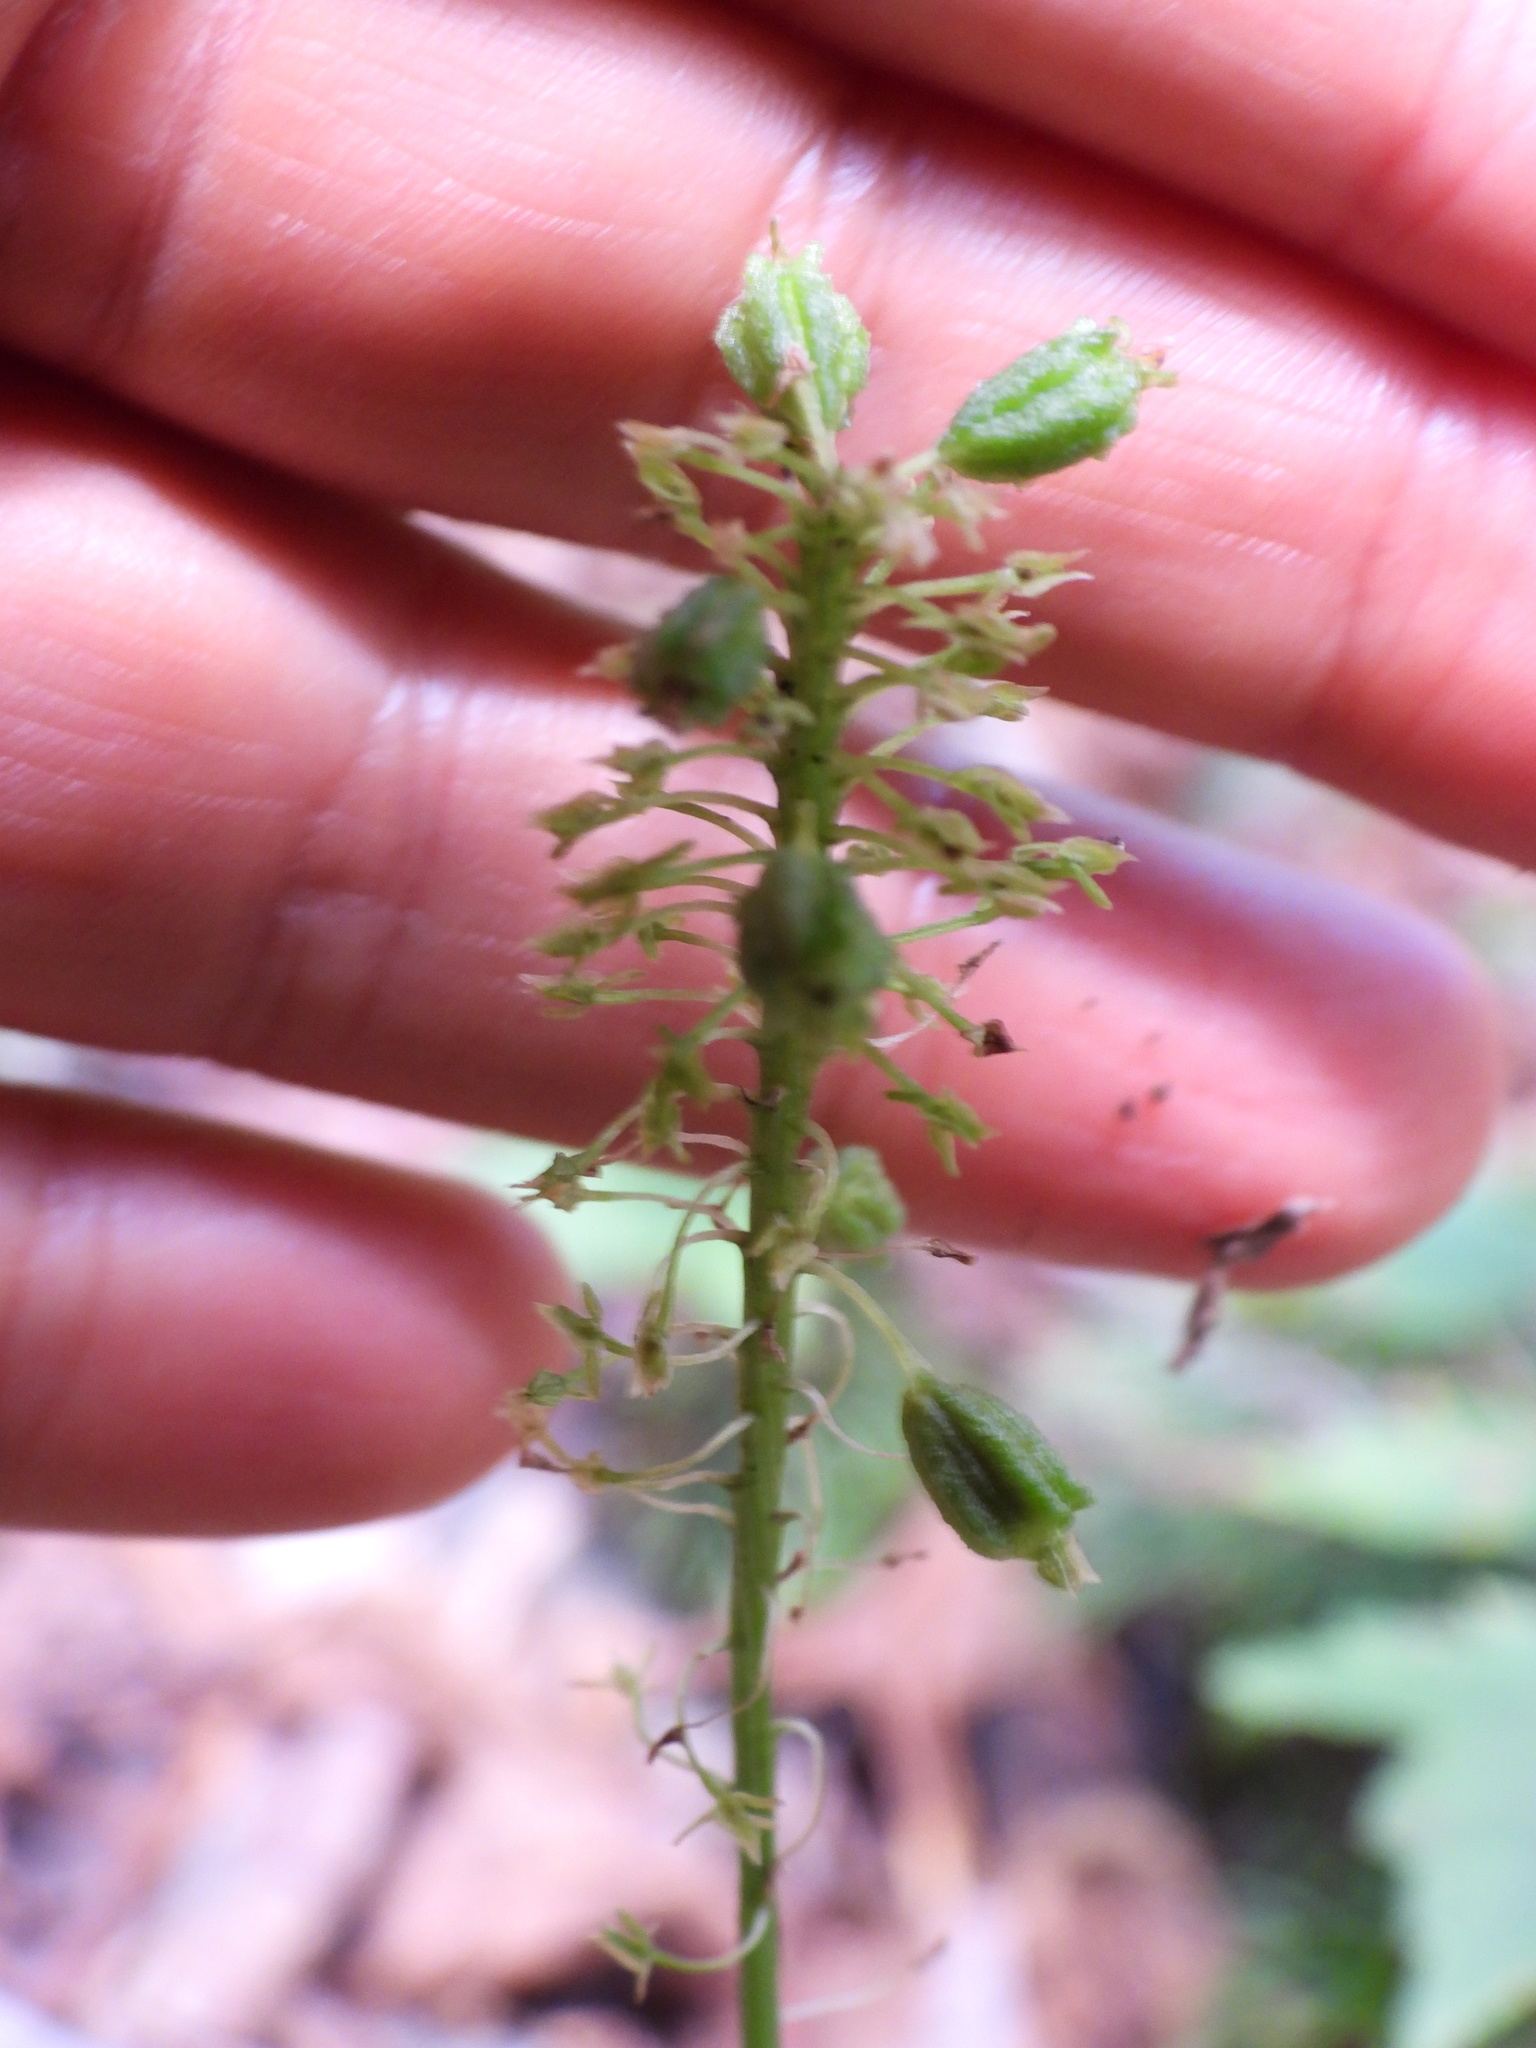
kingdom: Plantae
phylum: Tracheophyta
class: Liliopsida
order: Asparagales
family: Orchidaceae
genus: Malaxis
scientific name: Malaxis unifolia
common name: Green adder's-mouth
